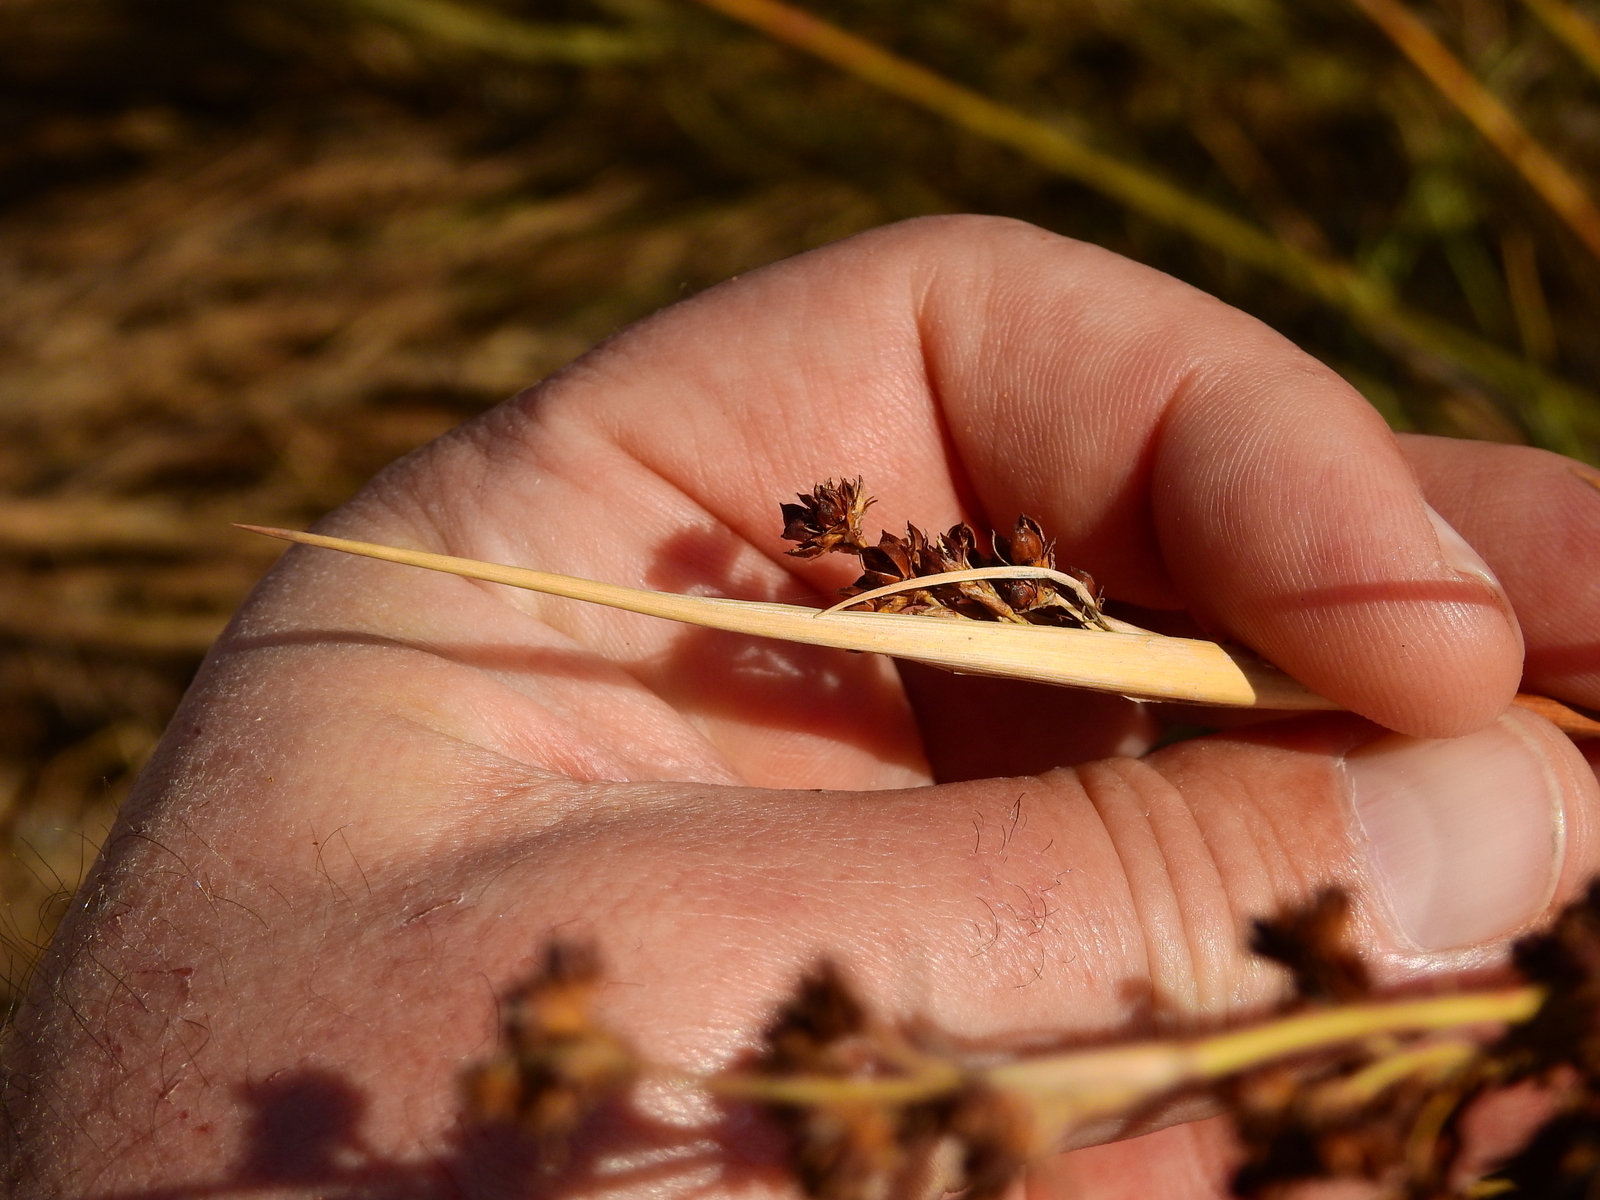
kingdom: Plantae
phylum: Tracheophyta
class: Liliopsida
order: Poales
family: Juncaceae
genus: Juncus
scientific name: Juncus acutus
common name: Sharp rush
